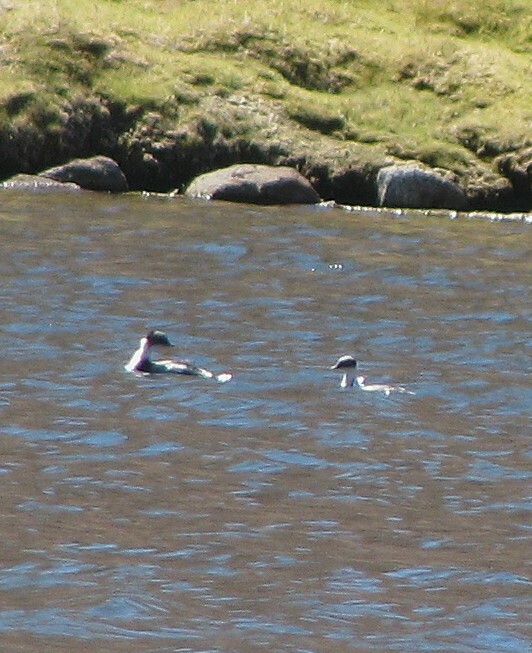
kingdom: Animalia
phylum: Chordata
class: Aves
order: Podicipediformes
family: Podicipedidae
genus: Podiceps
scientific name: Podiceps occipitalis
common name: Silvery grebe
